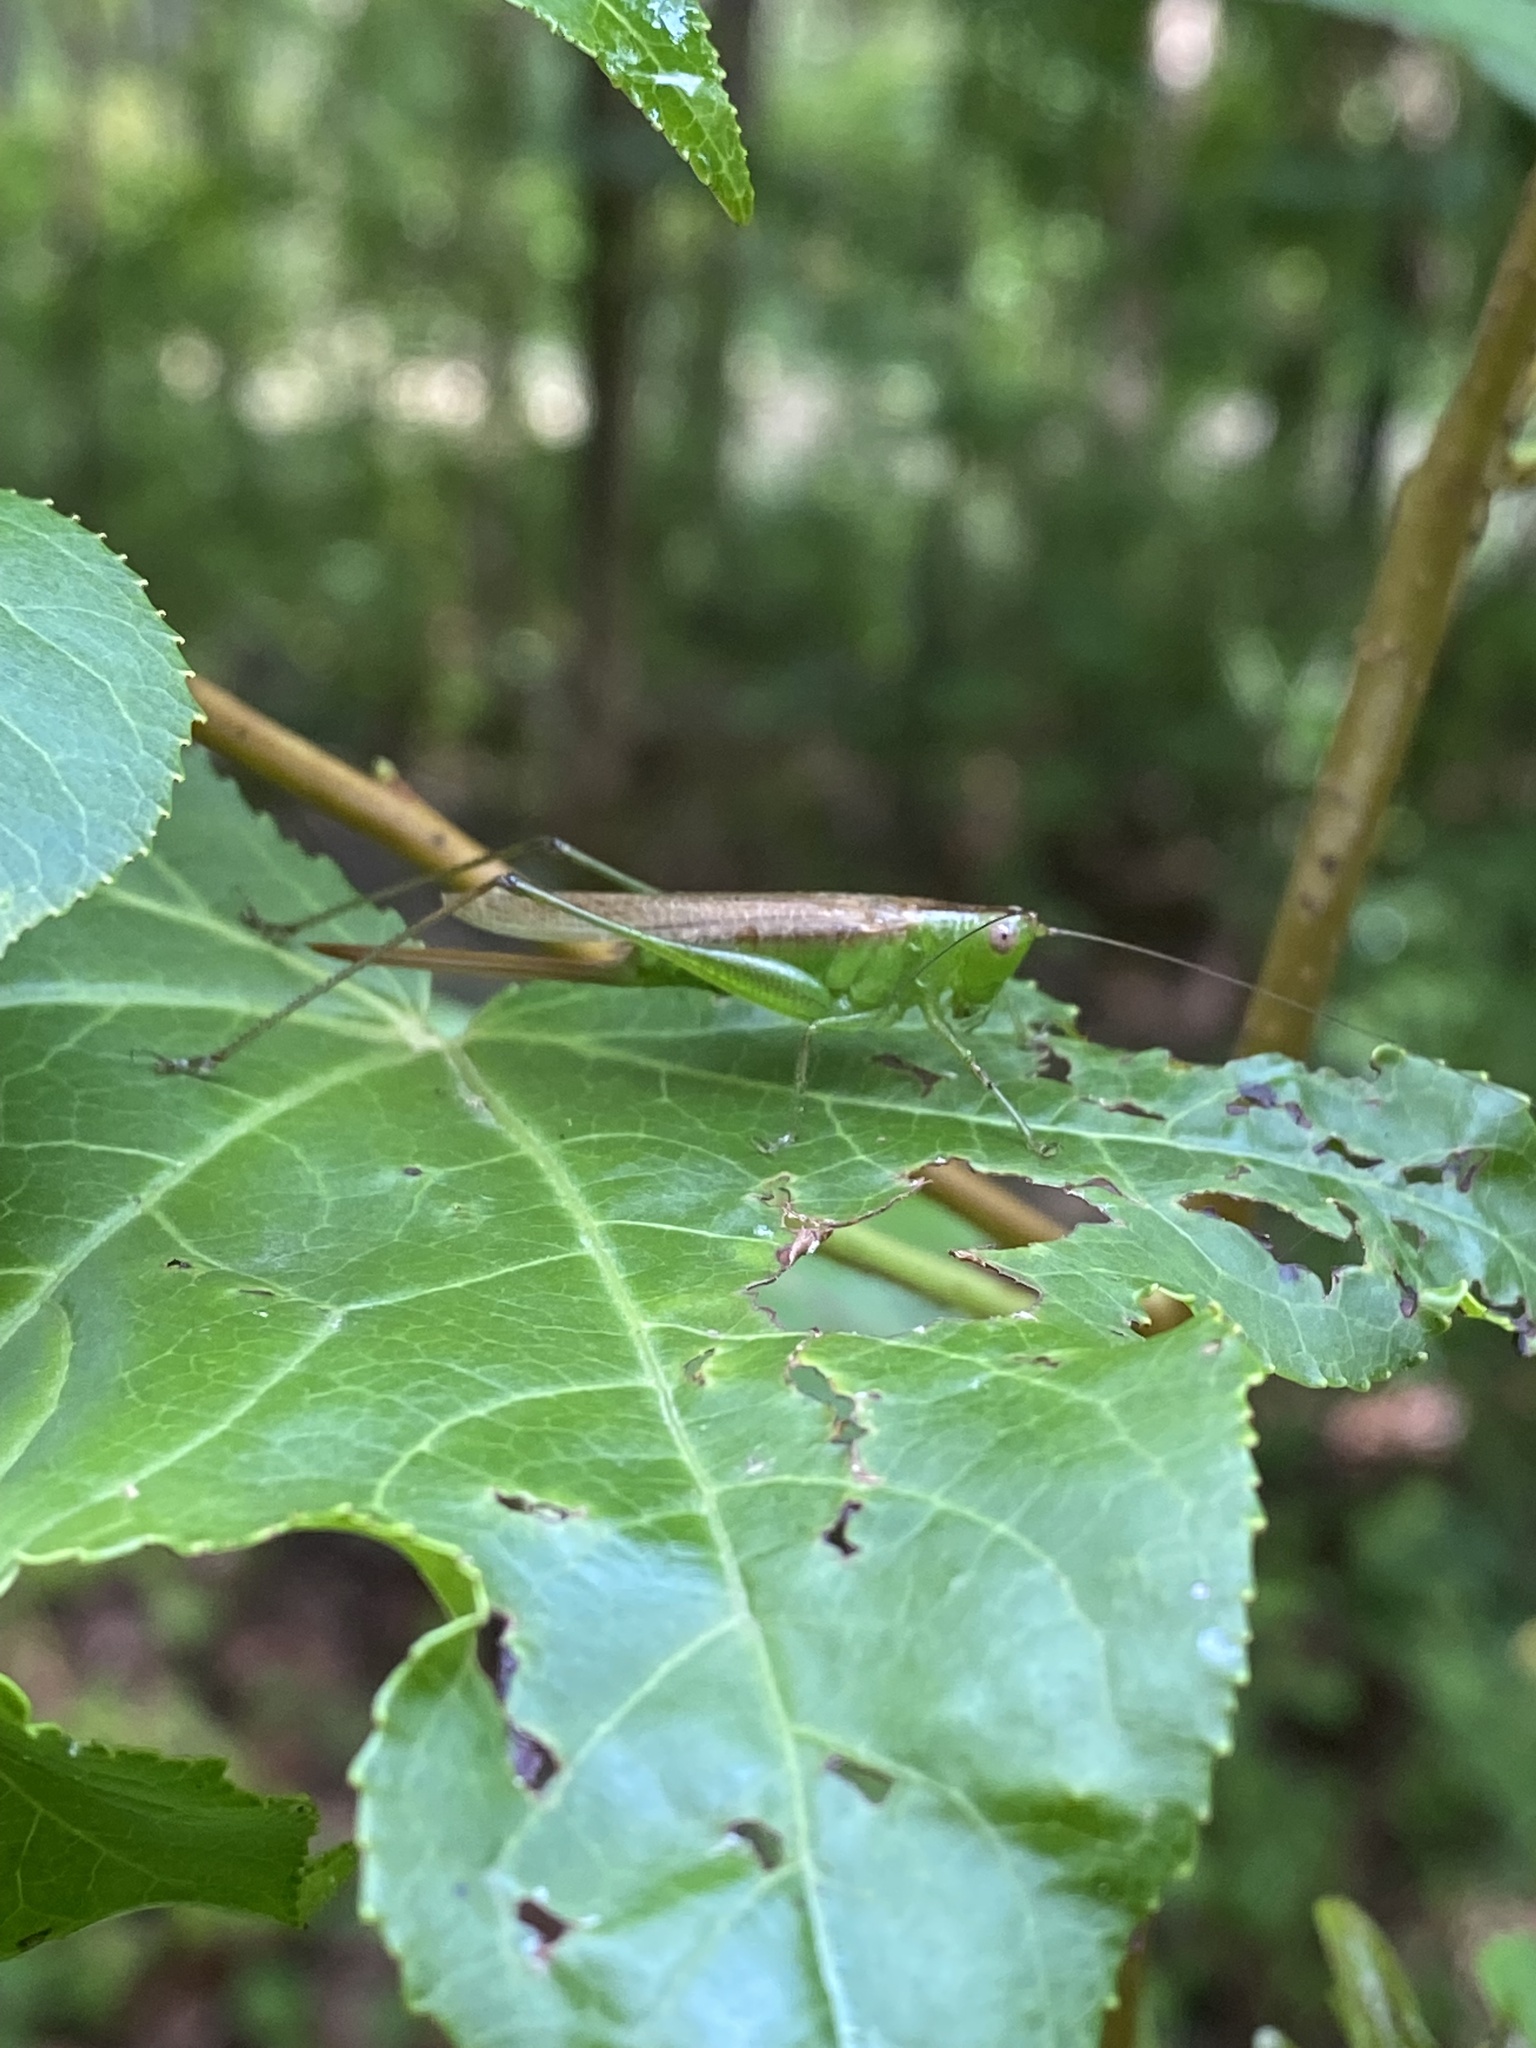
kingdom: Animalia
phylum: Arthropoda
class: Insecta
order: Orthoptera
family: Tettigoniidae
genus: Conocephalus
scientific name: Conocephalus fasciatus
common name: Slender meadow katydid
